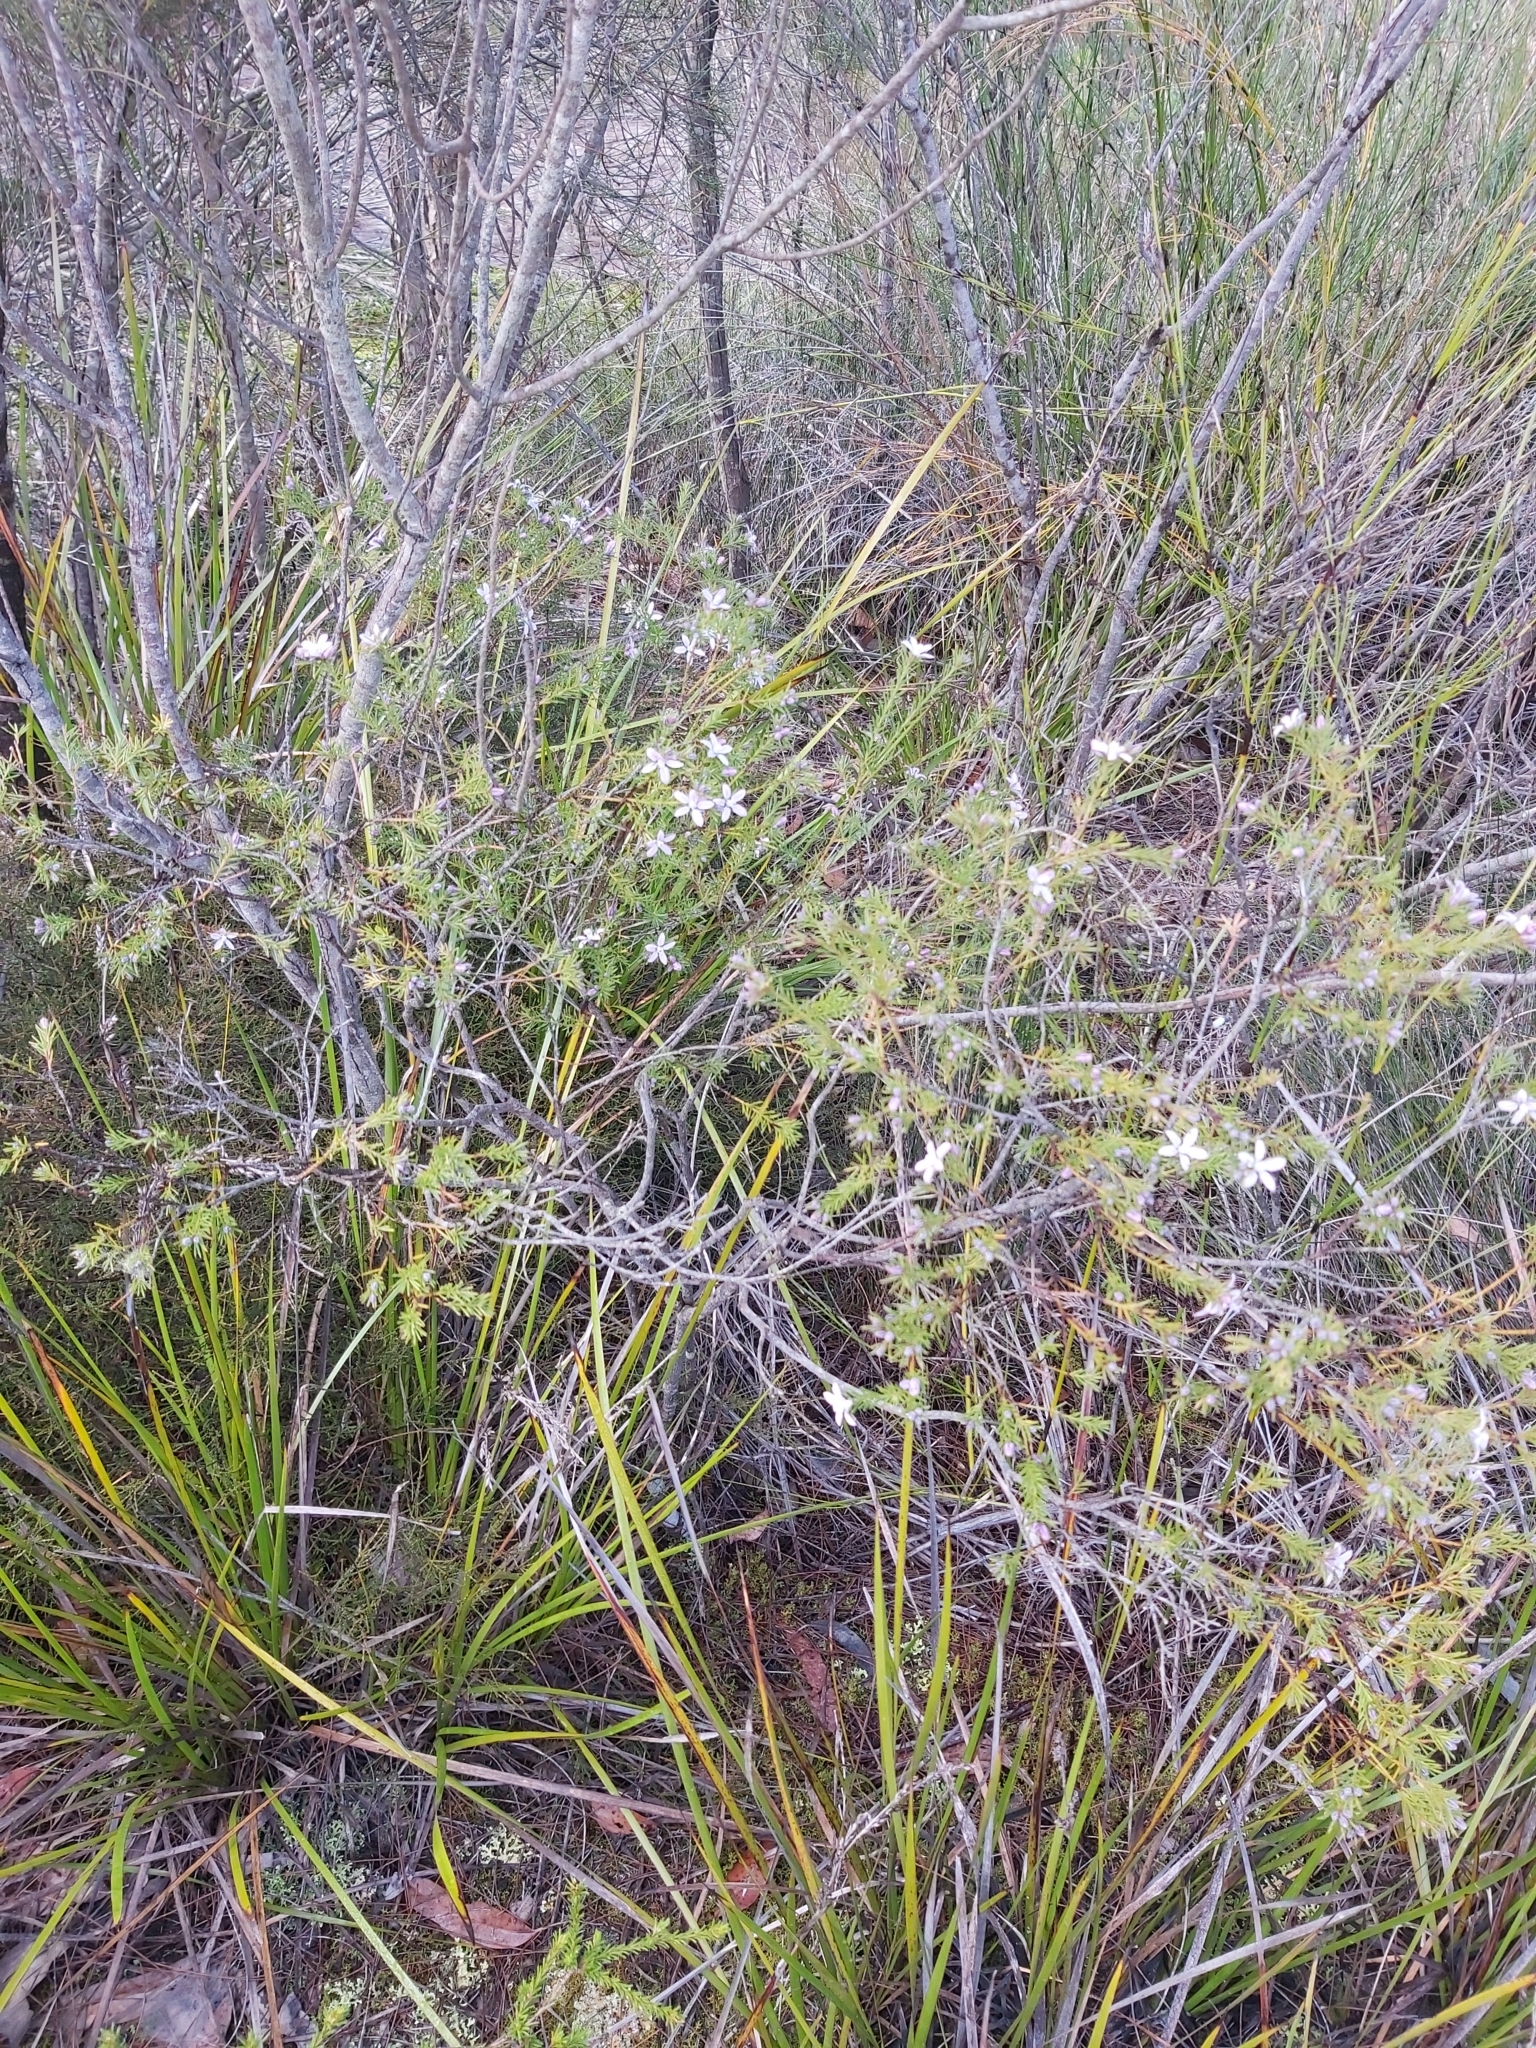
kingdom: Plantae
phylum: Tracheophyta
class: Magnoliopsida
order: Sapindales
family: Rutaceae
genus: Philotheca
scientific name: Philotheca salsolifolia
